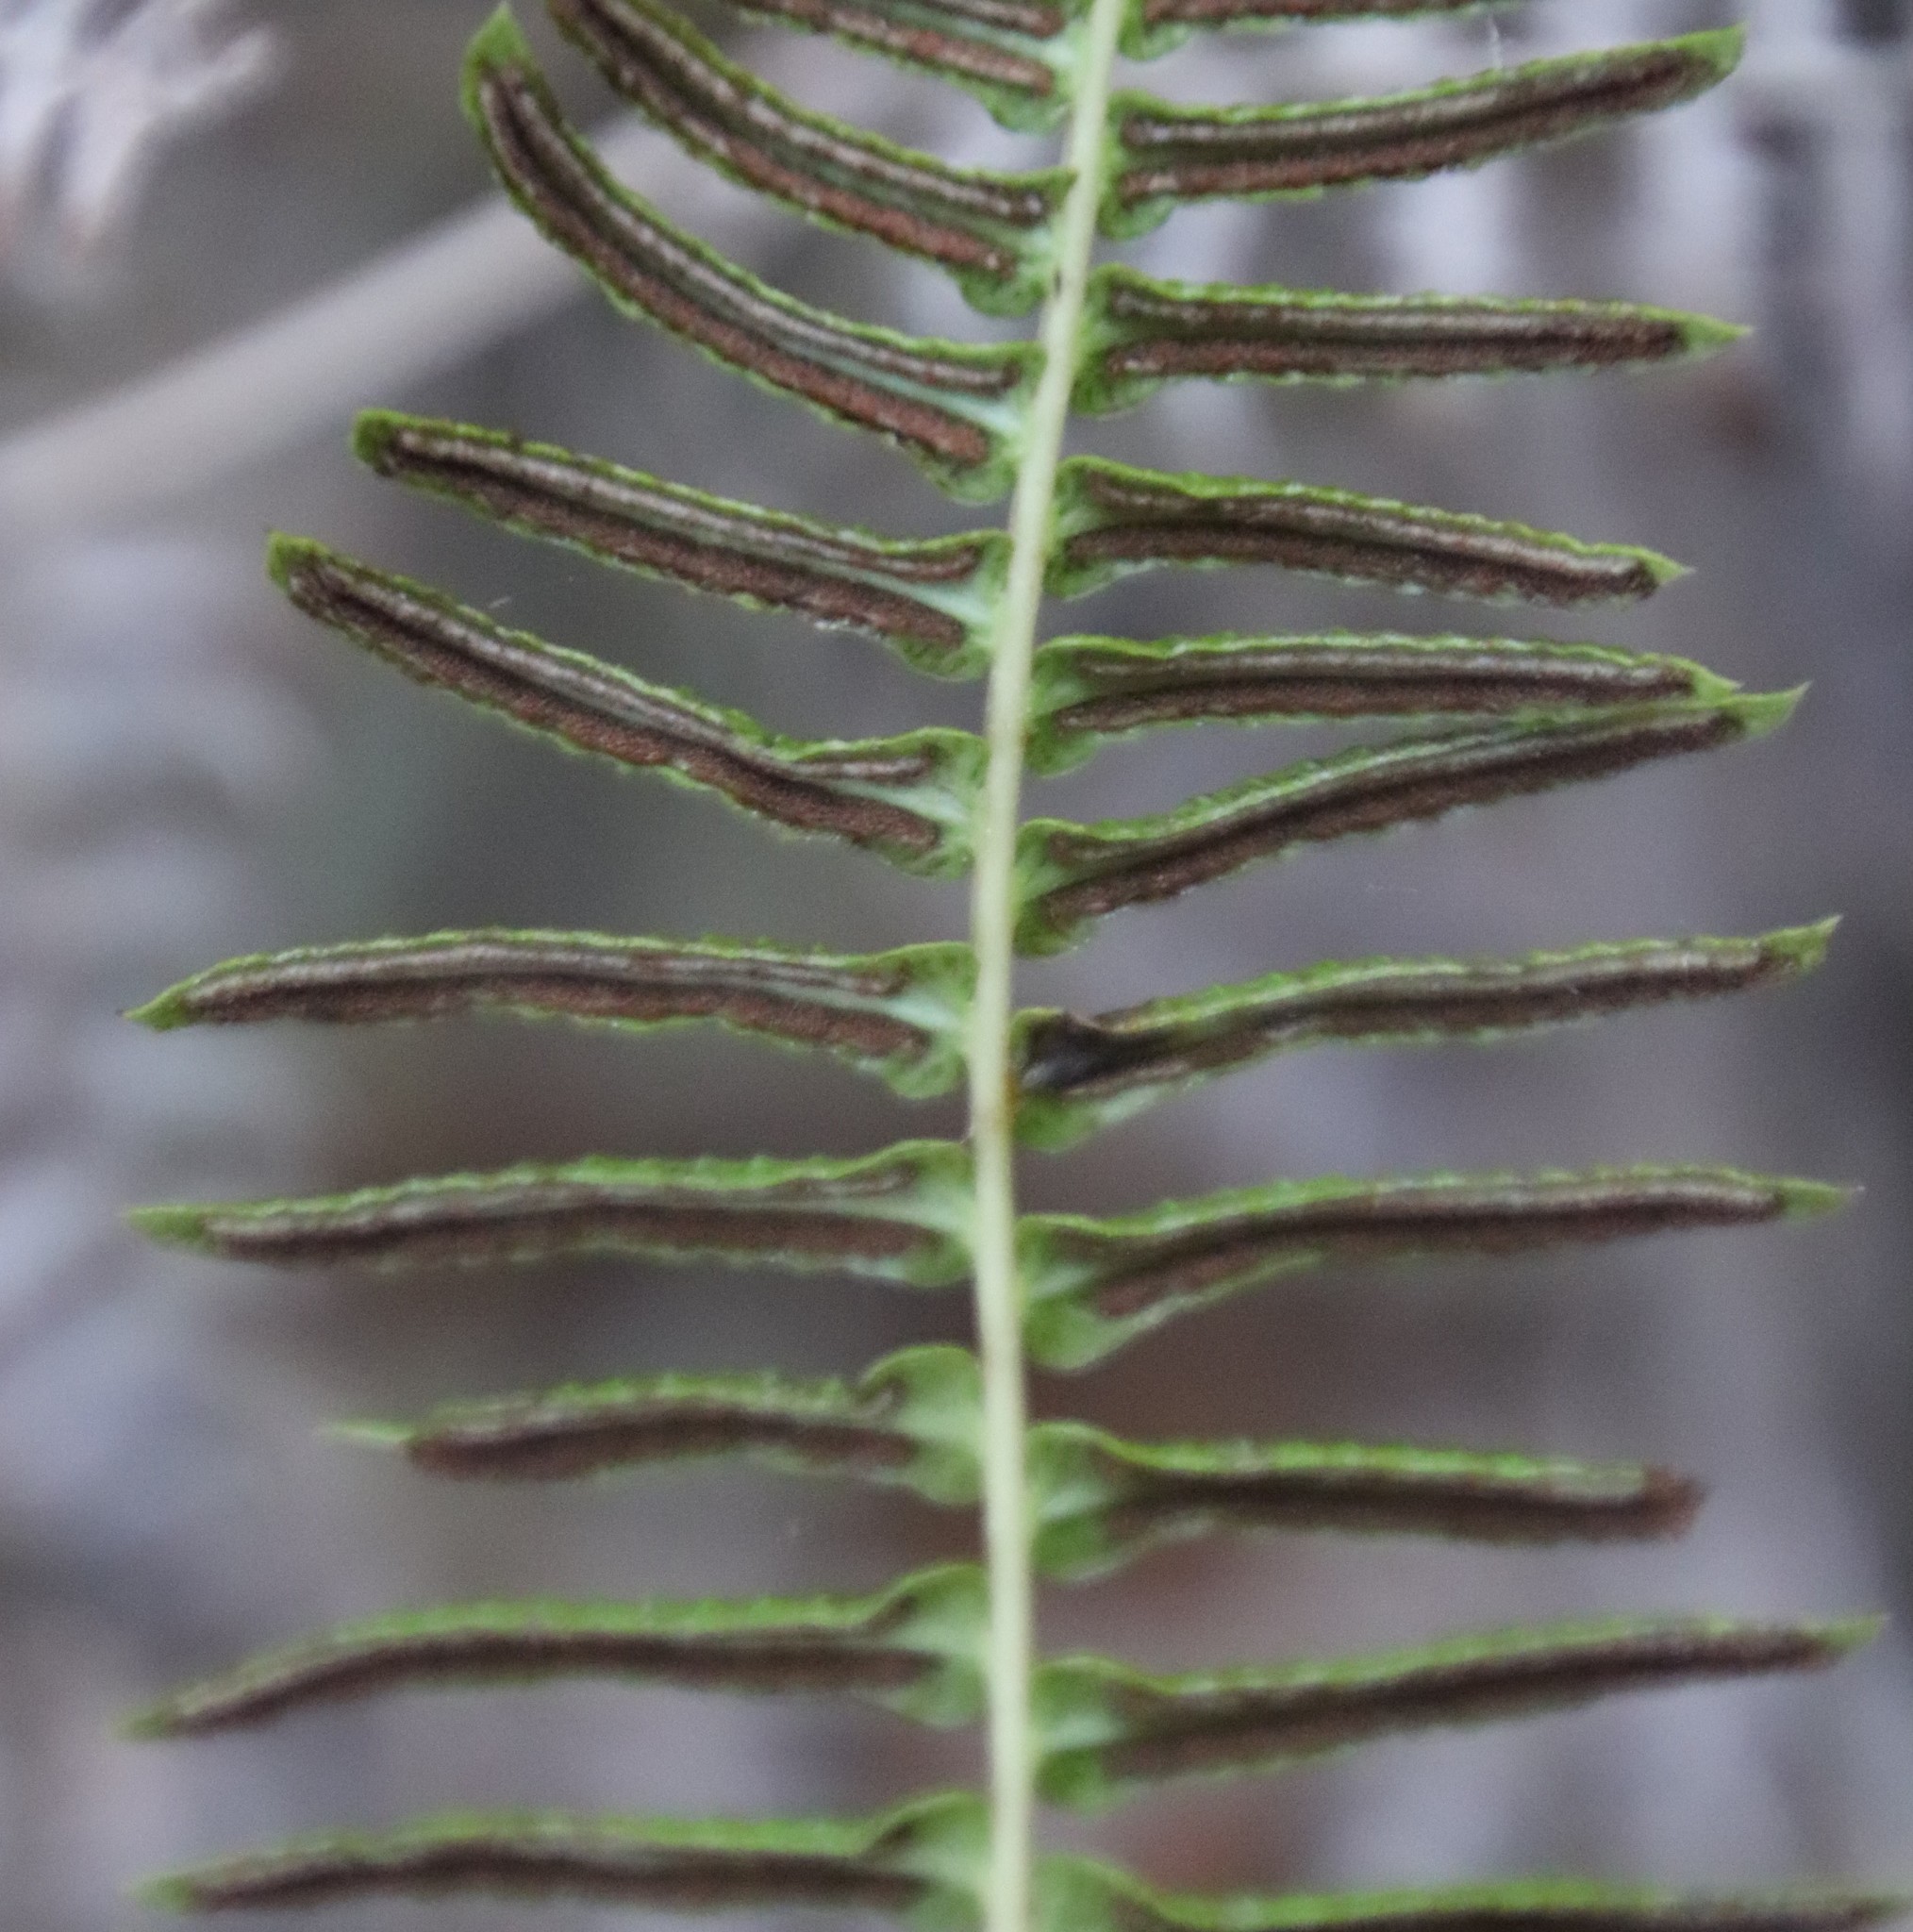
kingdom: Plantae
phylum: Tracheophyta
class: Polypodiopsida
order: Polypodiales
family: Blechnaceae
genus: Blechnum
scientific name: Blechnum punctulatum
